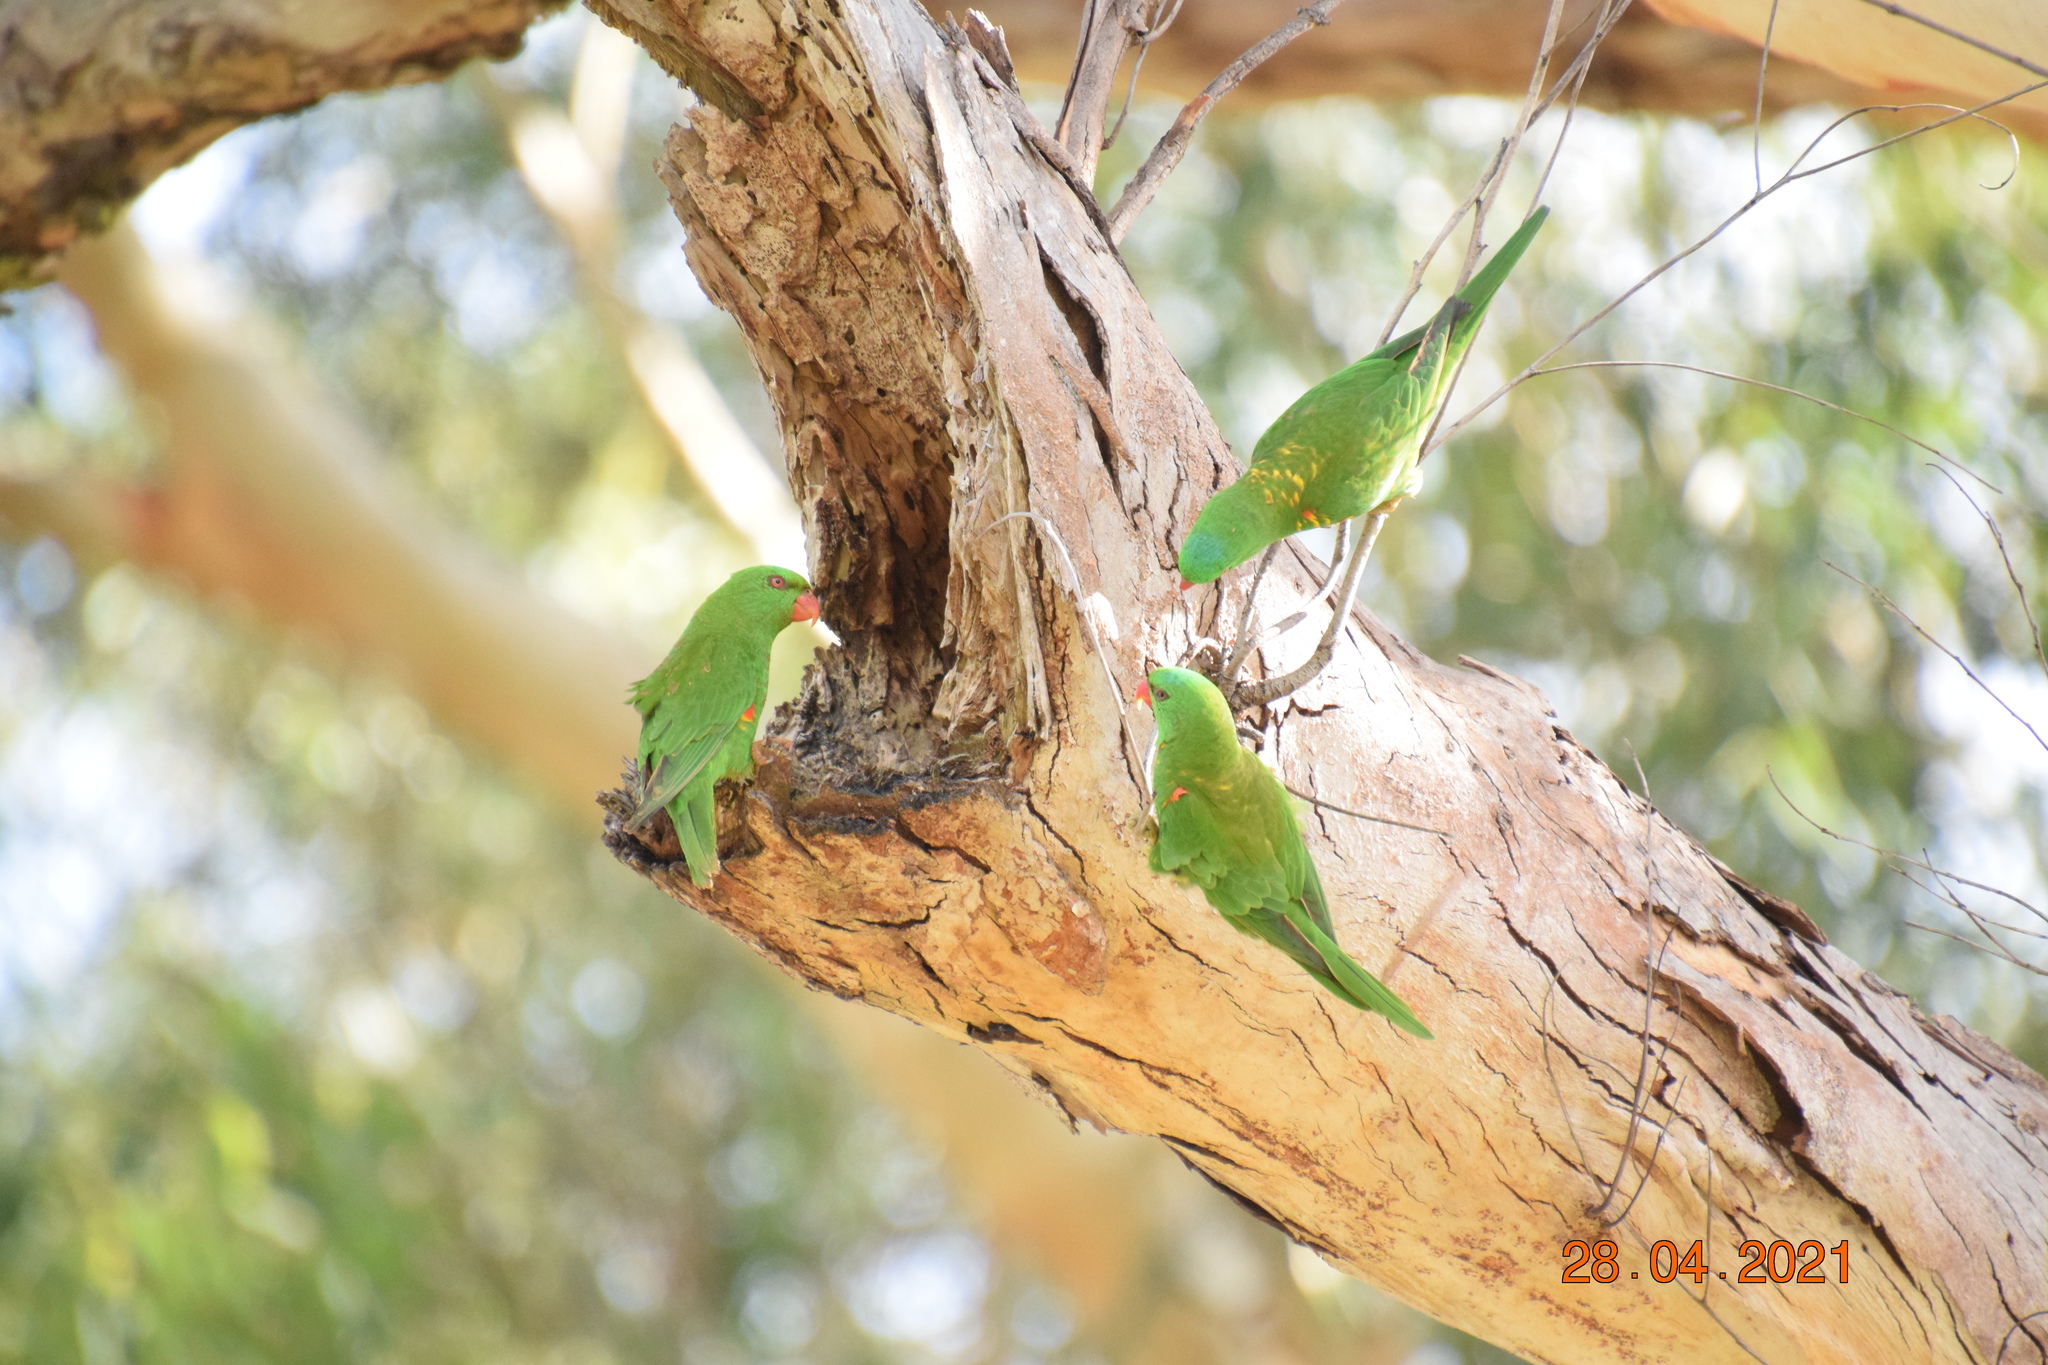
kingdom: Animalia
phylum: Chordata
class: Aves
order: Psittaciformes
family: Psittacidae
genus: Trichoglossus
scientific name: Trichoglossus chlorolepidotus
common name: Scaly-breasted lorikeet
